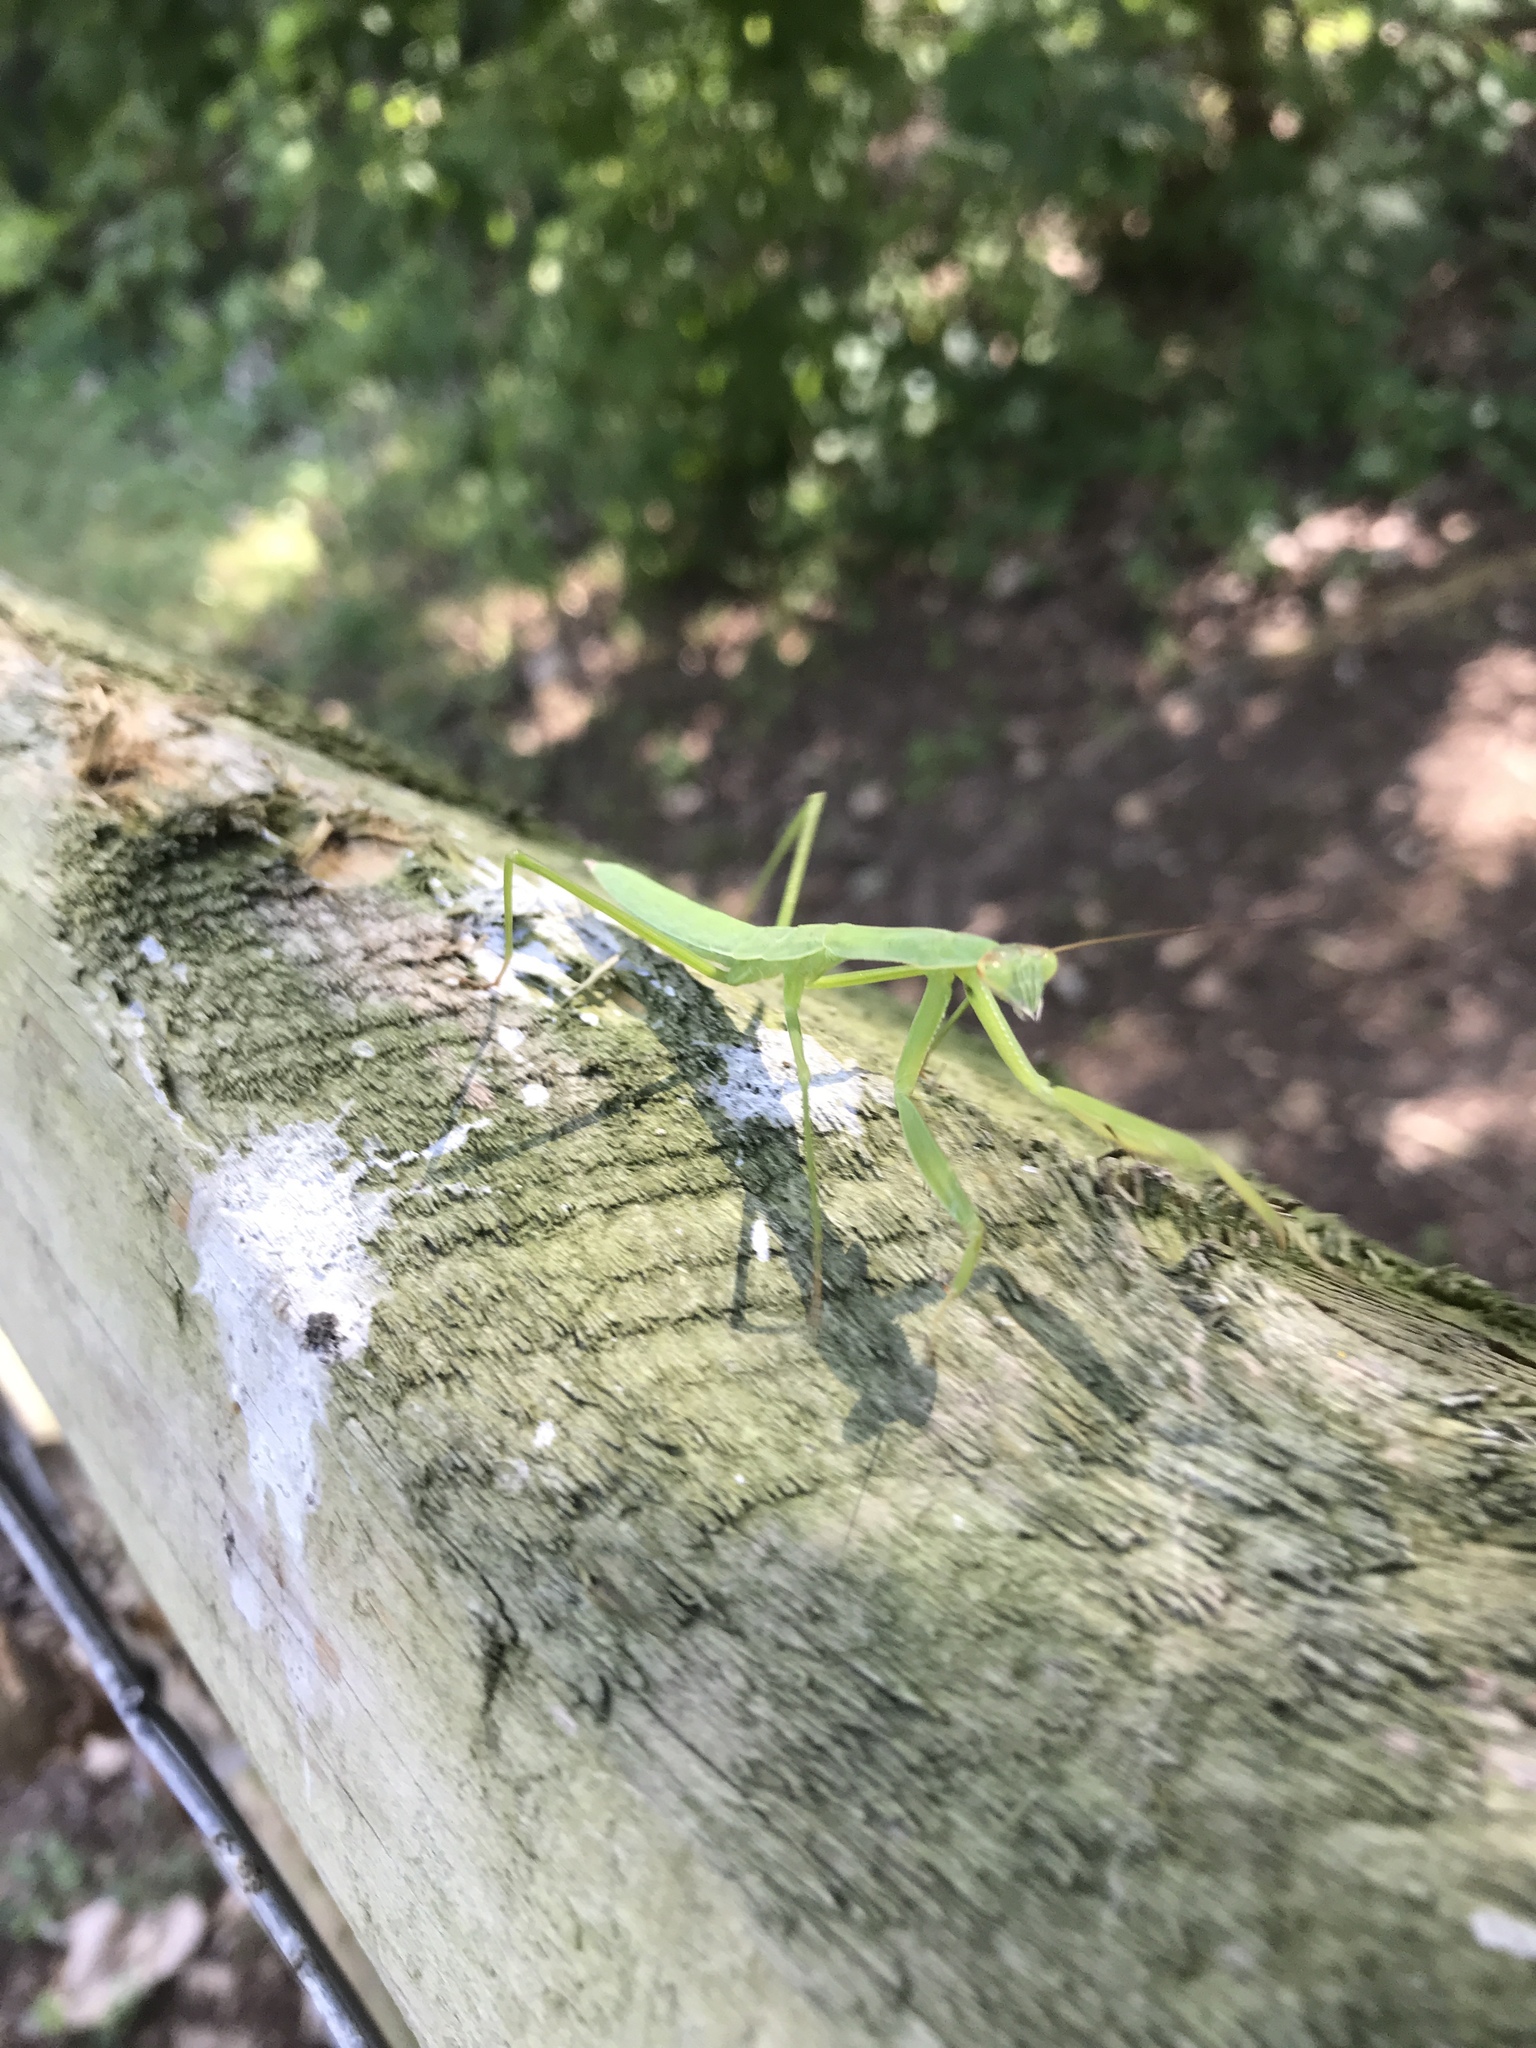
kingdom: Animalia
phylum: Arthropoda
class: Insecta
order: Mantodea
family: Mantidae
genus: Tenodera
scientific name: Tenodera sinensis
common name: Chinese mantis
